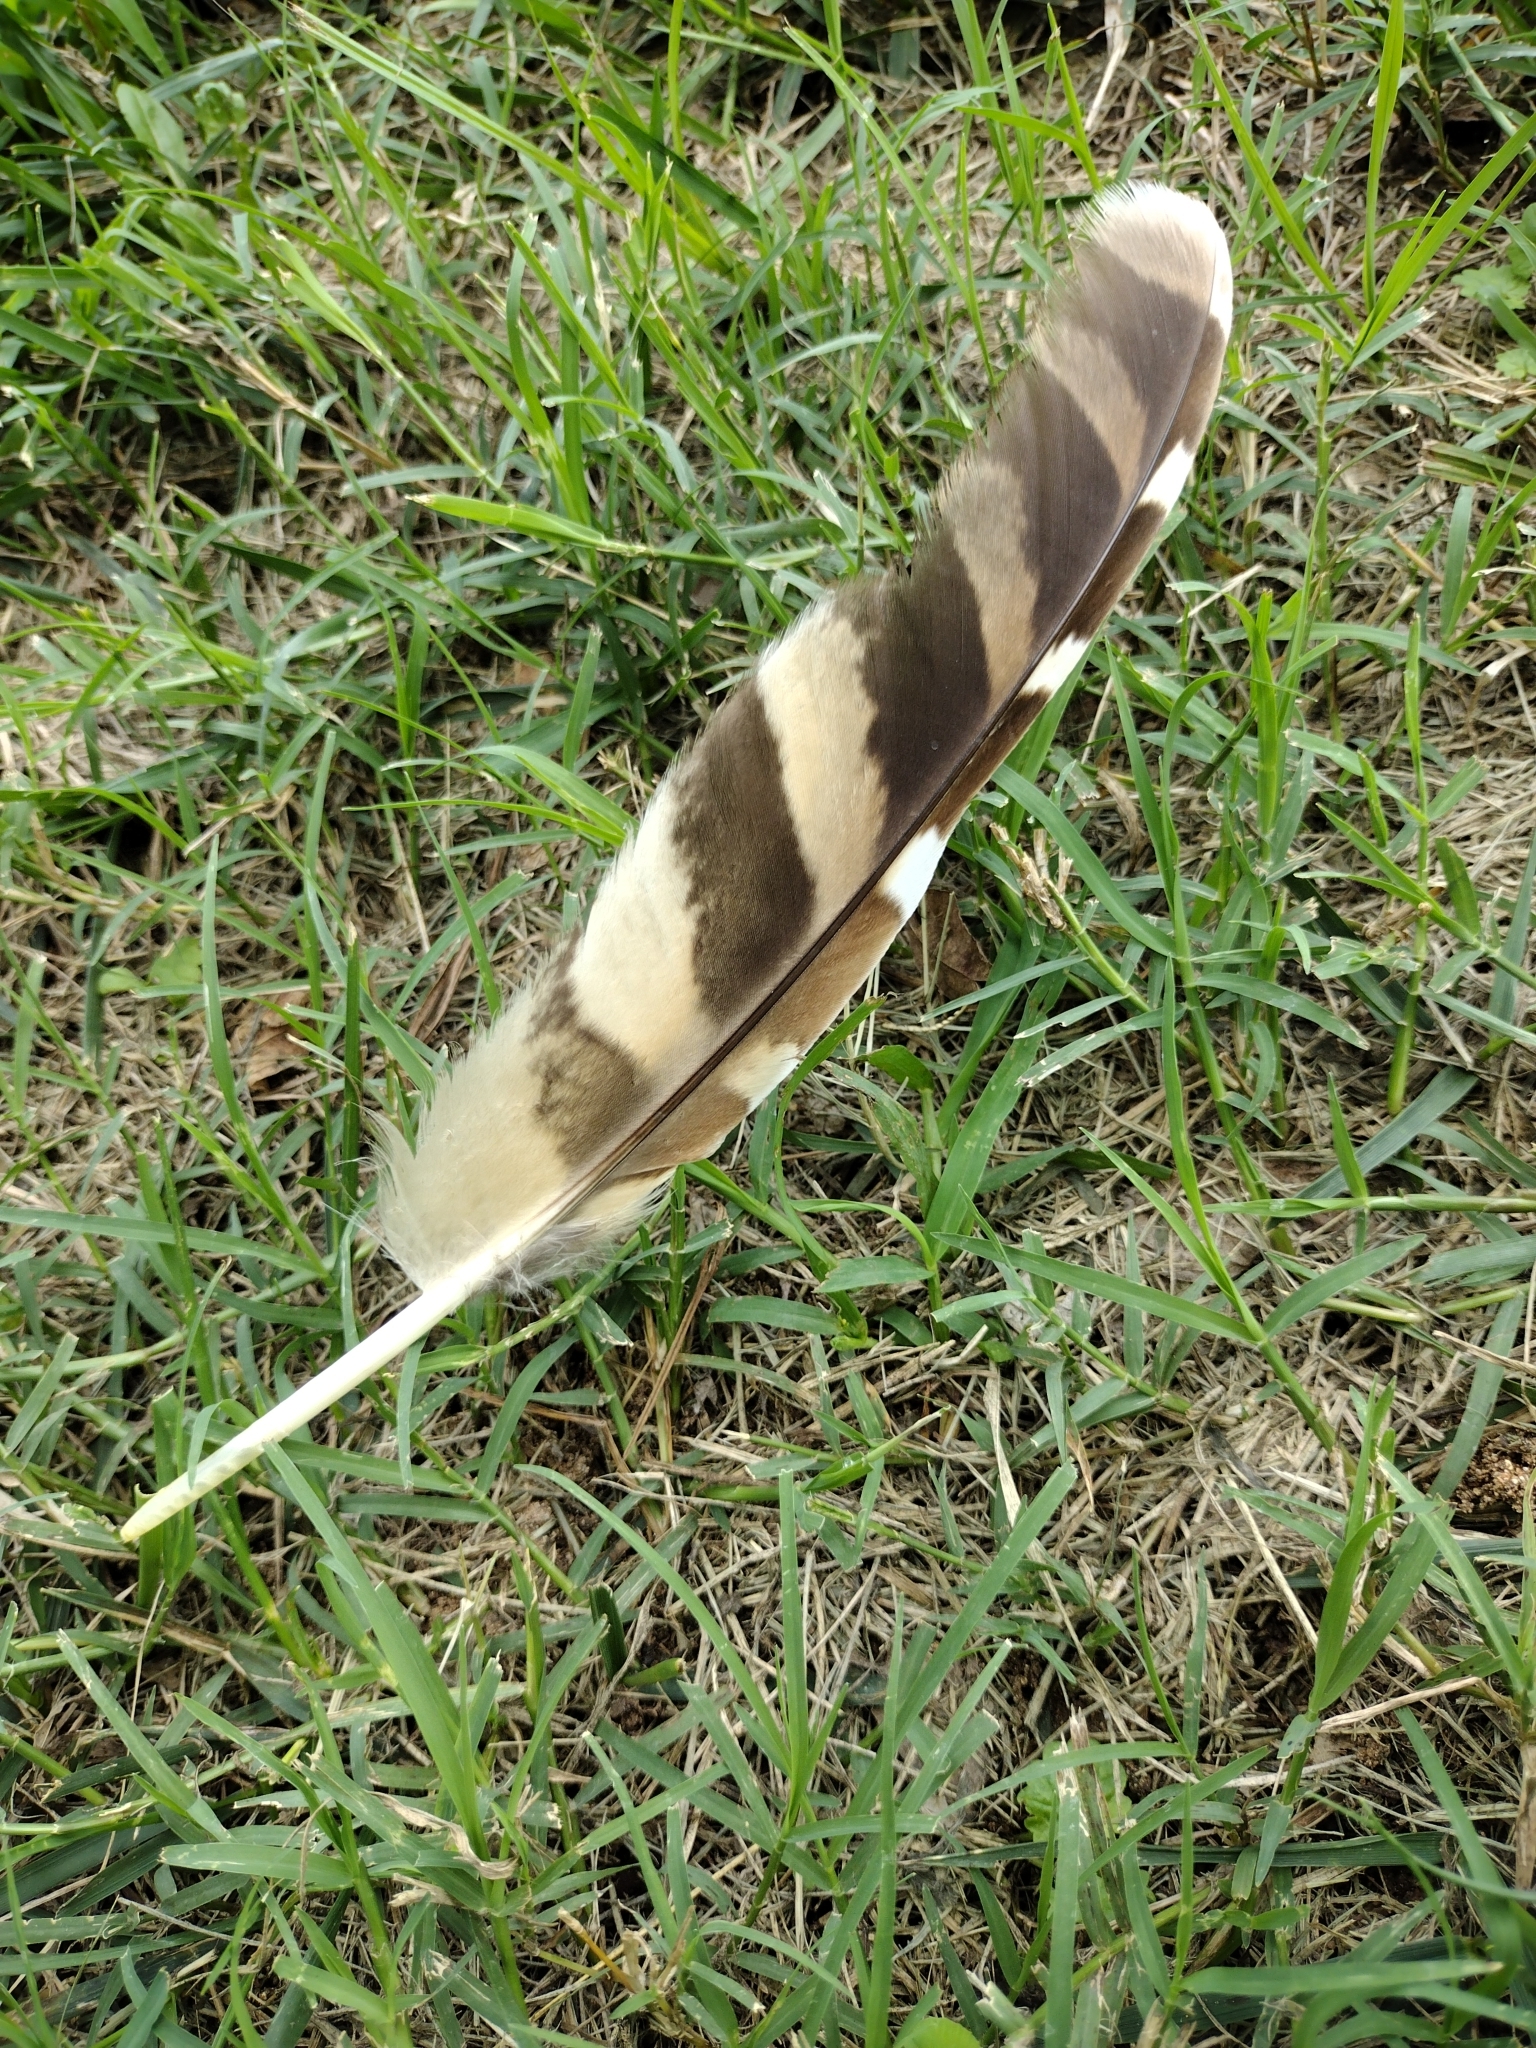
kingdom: Animalia
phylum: Chordata
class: Aves
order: Strigiformes
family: Strigidae
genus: Strix
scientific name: Strix varia
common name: Barred owl
